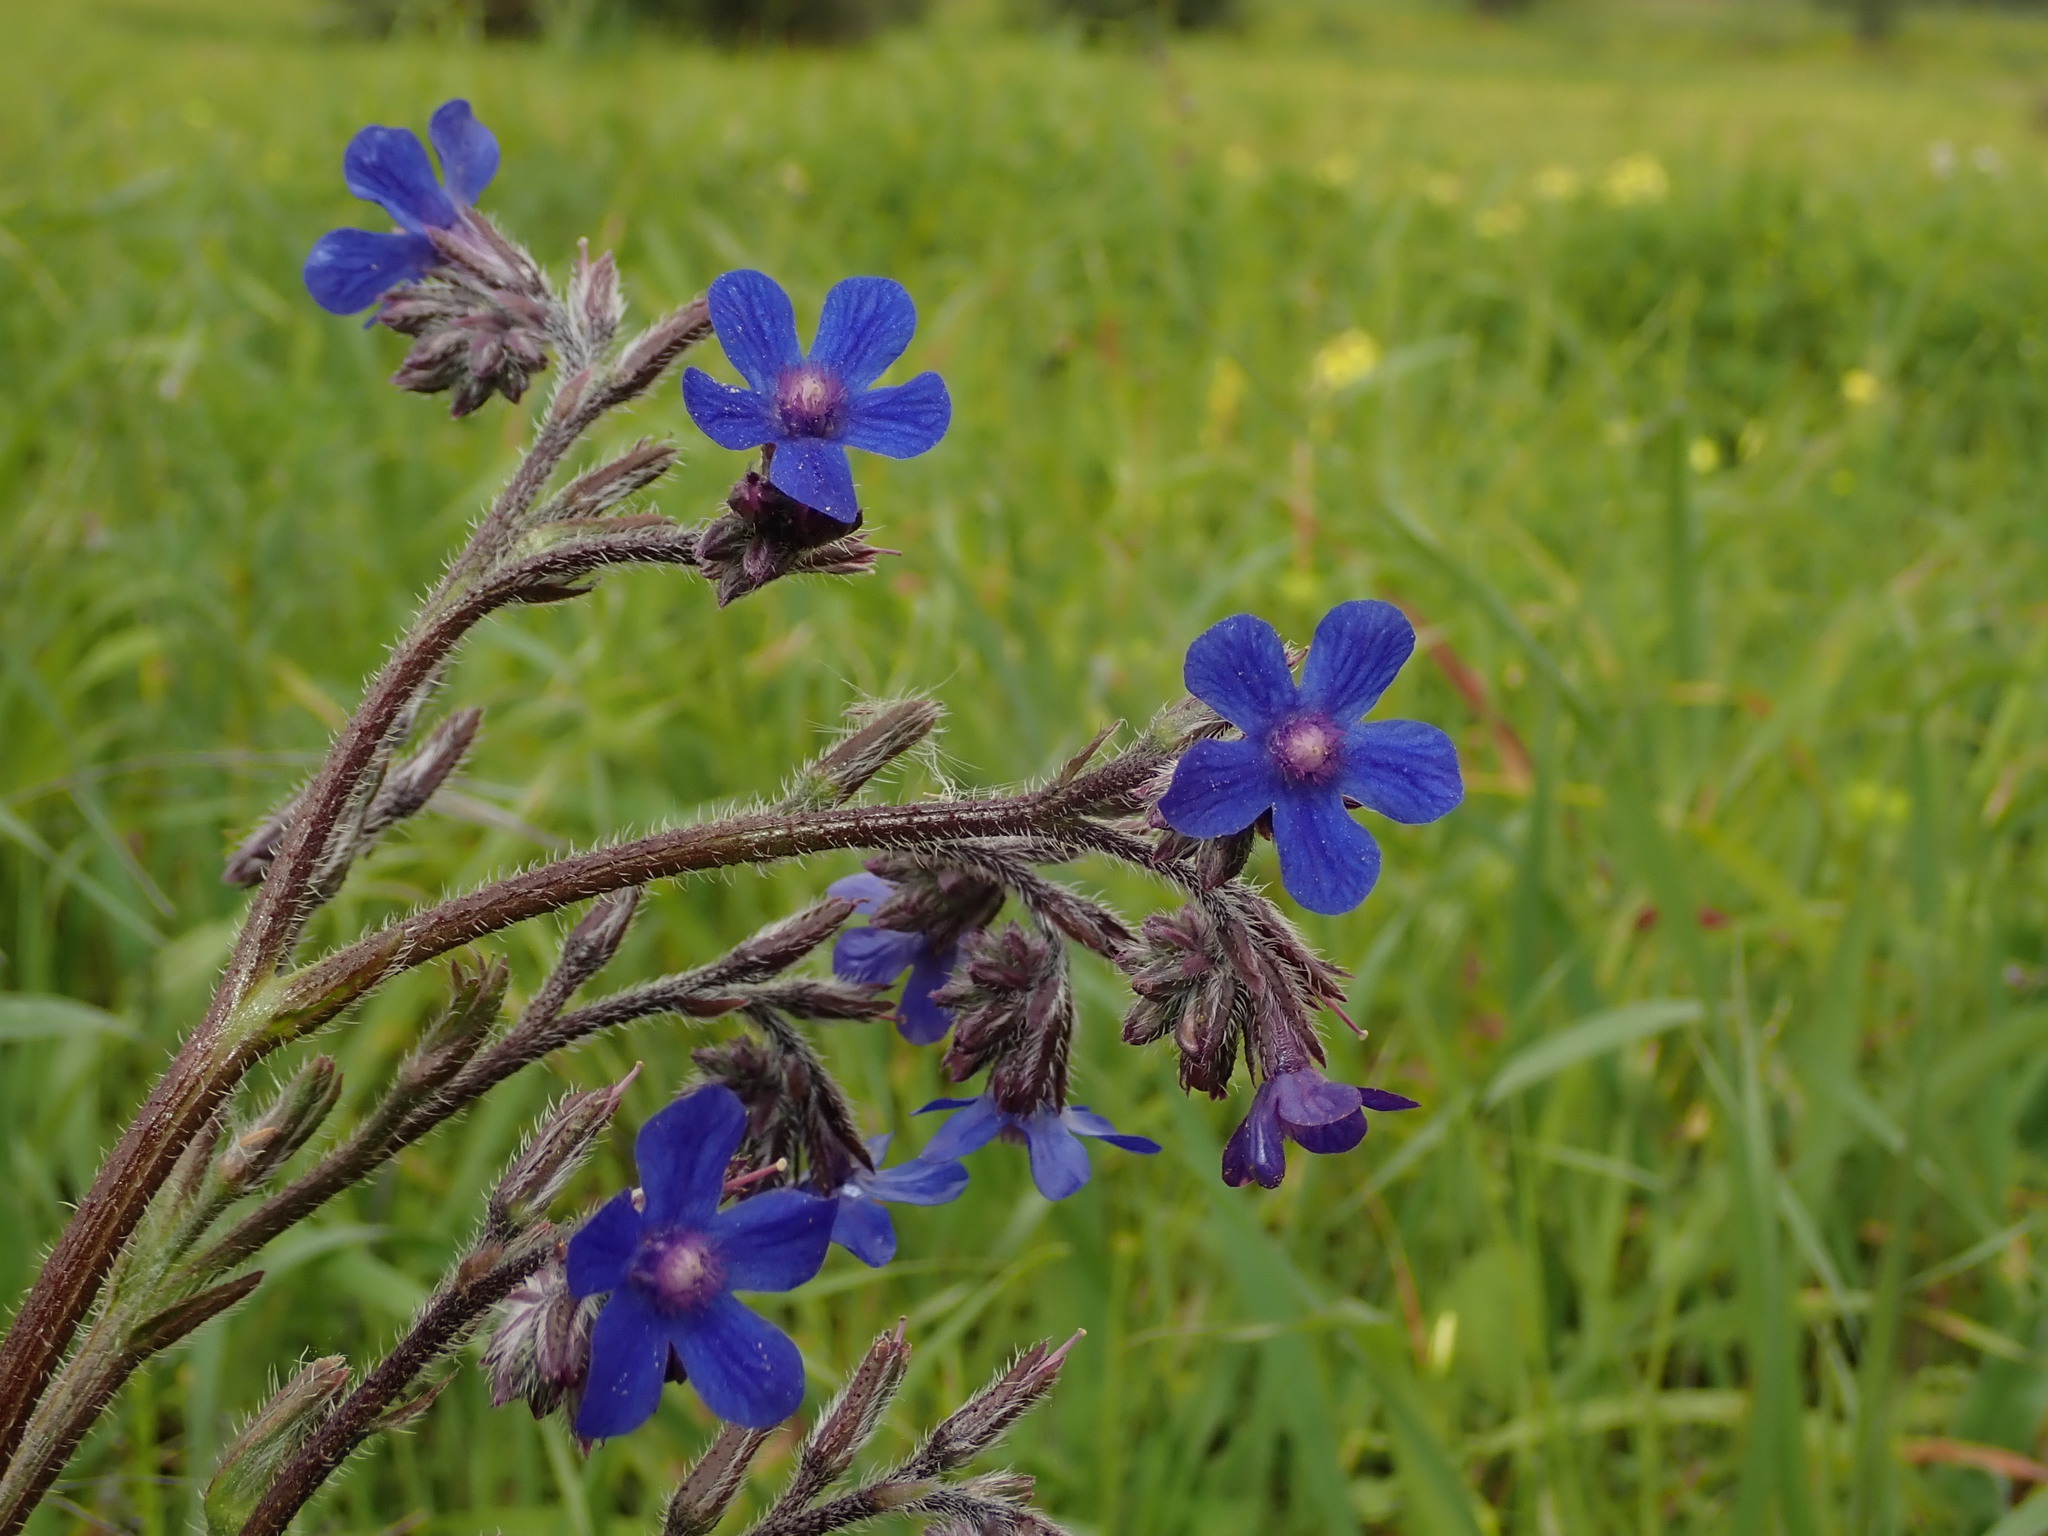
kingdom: Plantae
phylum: Tracheophyta
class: Magnoliopsida
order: Boraginales
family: Boraginaceae
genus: Anchusa
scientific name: Anchusa azurea
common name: Garden anchusa
